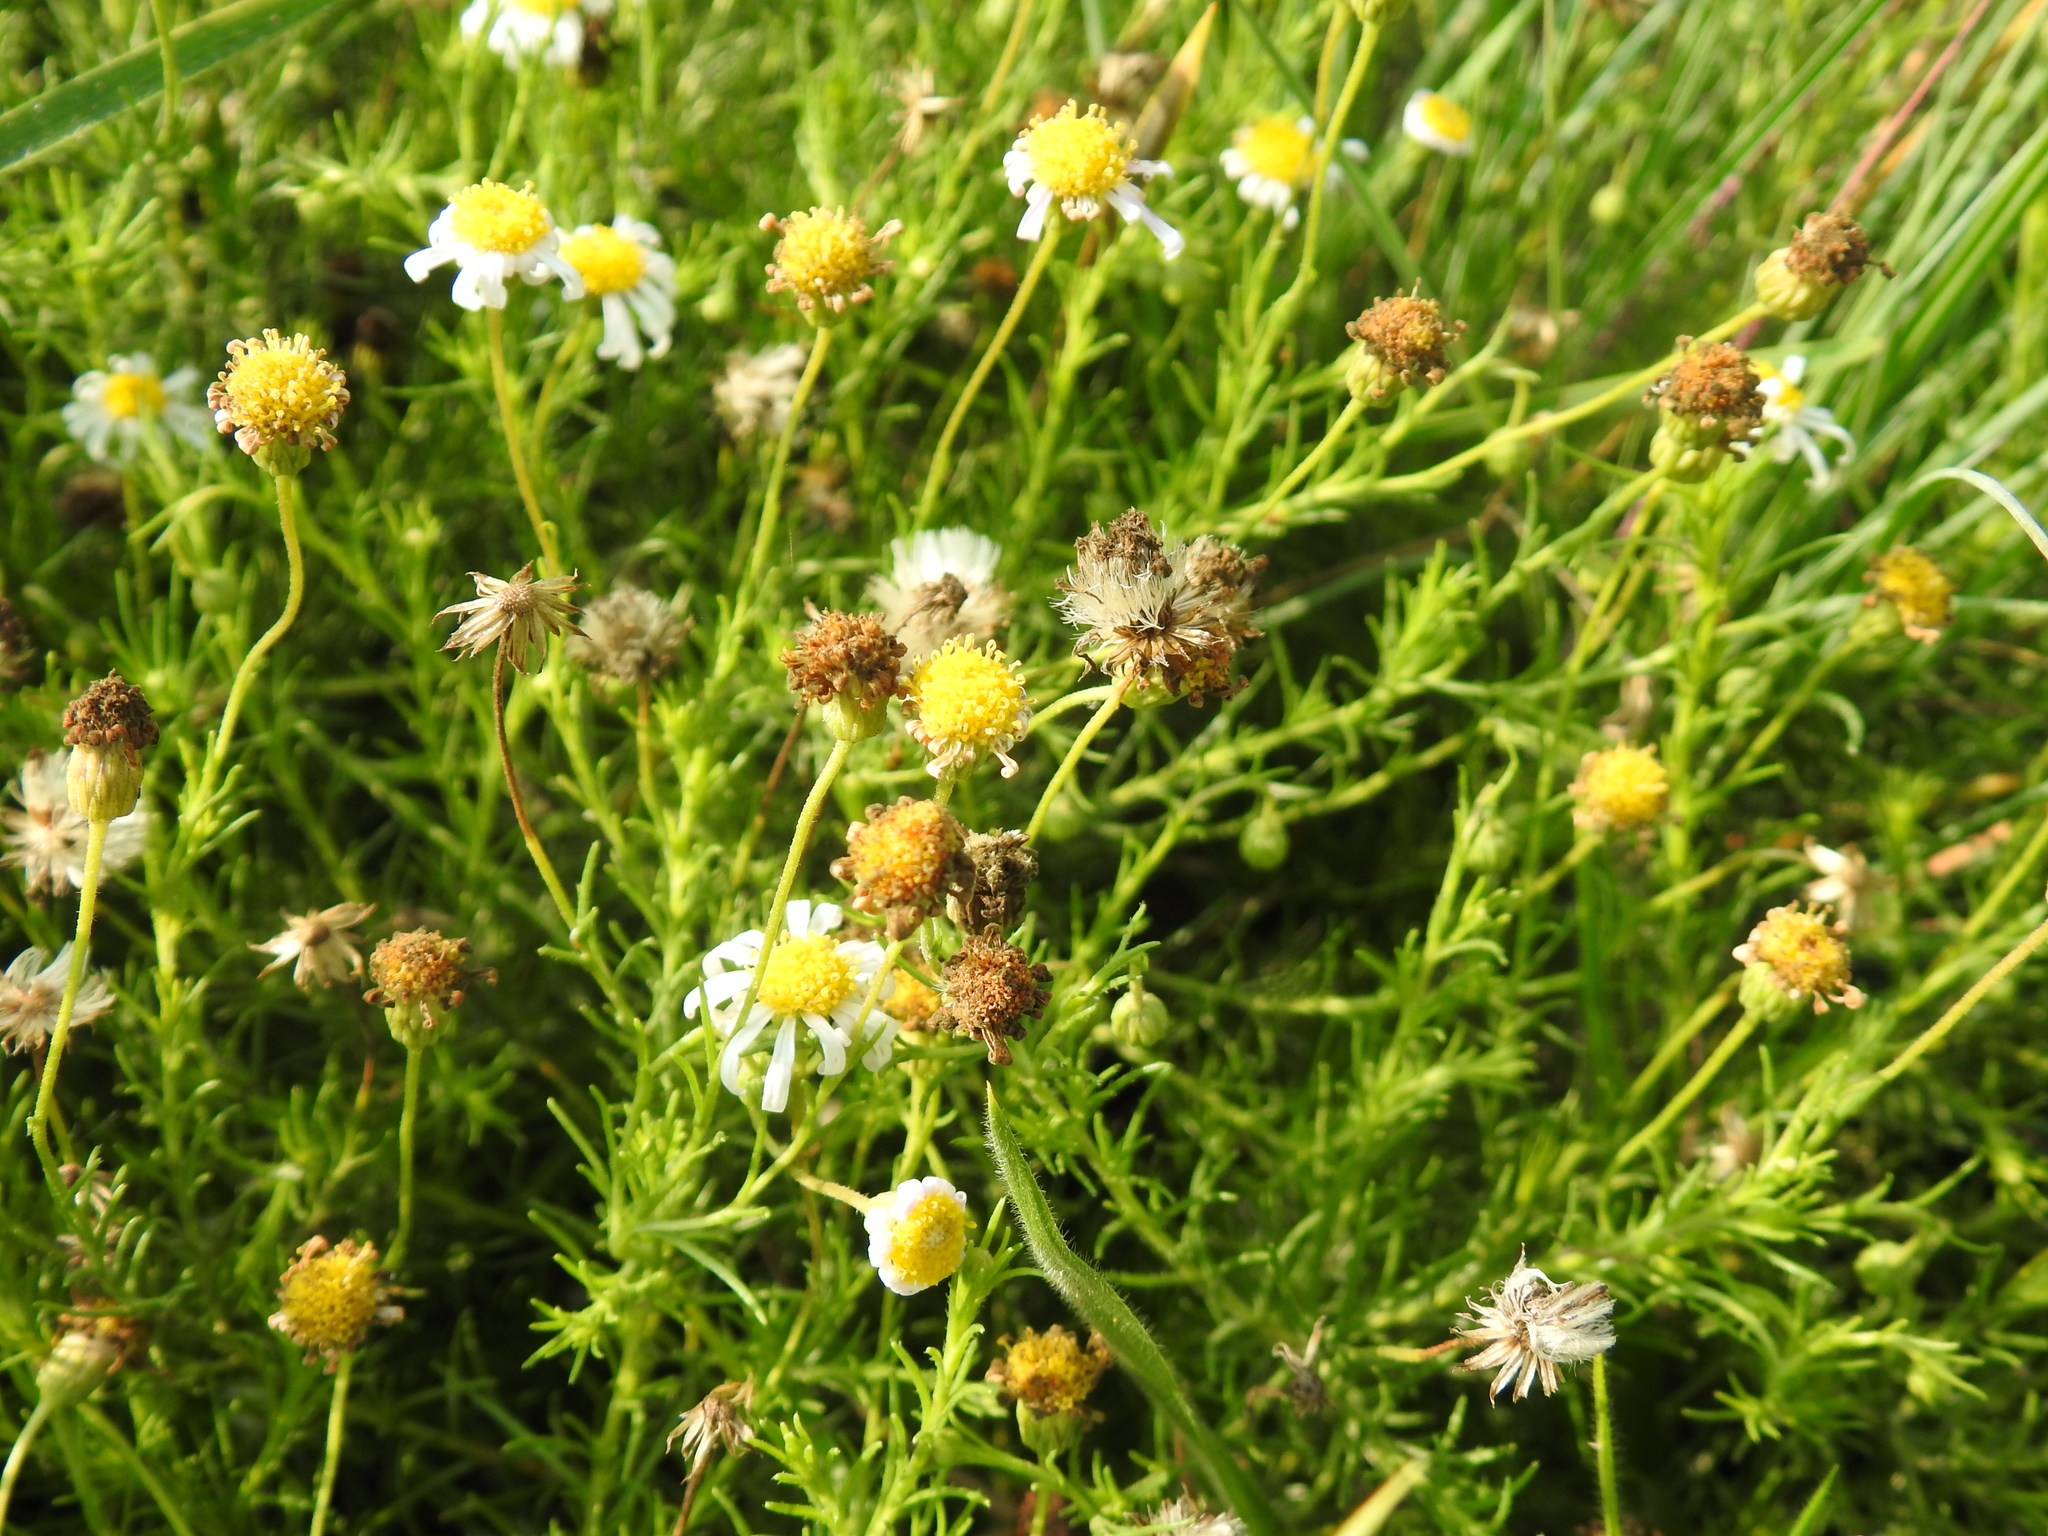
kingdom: Plantae
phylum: Tracheophyta
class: Magnoliopsida
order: Asterales
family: Asteraceae
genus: Felicia
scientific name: Felicia muricata
